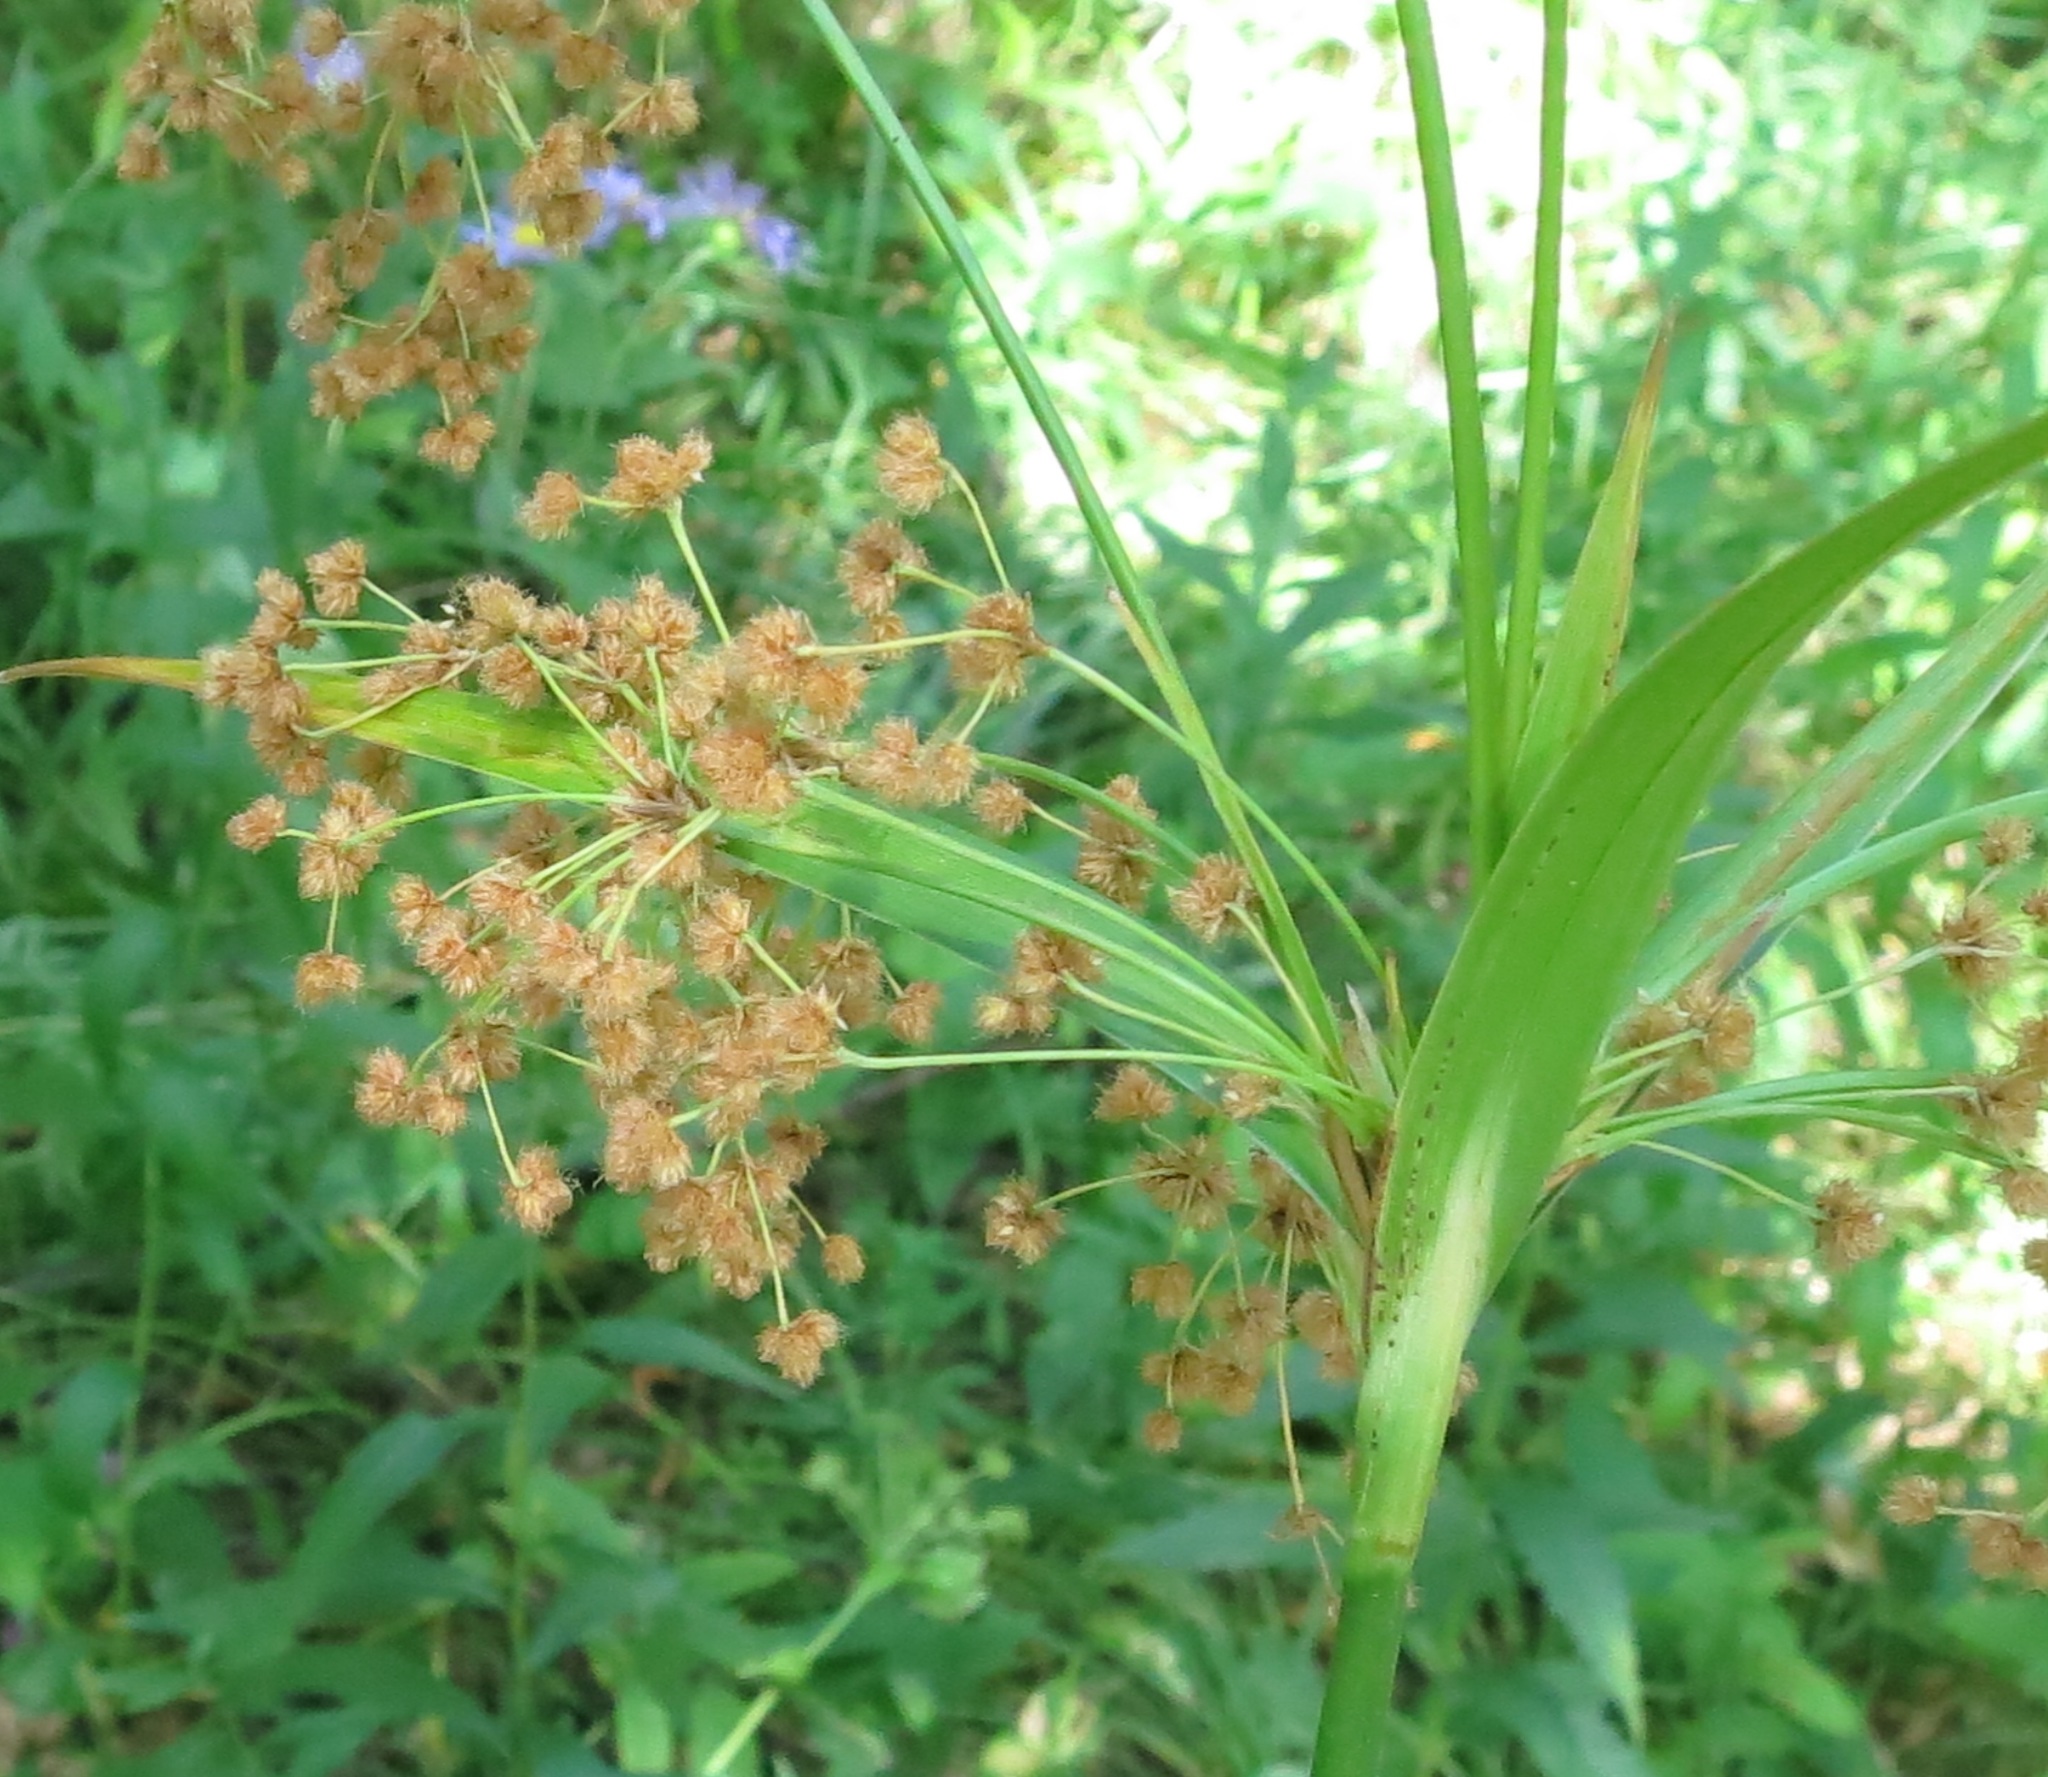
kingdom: Plantae
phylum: Tracheophyta
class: Liliopsida
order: Poales
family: Cyperaceae
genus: Scirpus
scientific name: Scirpus lushanensis
